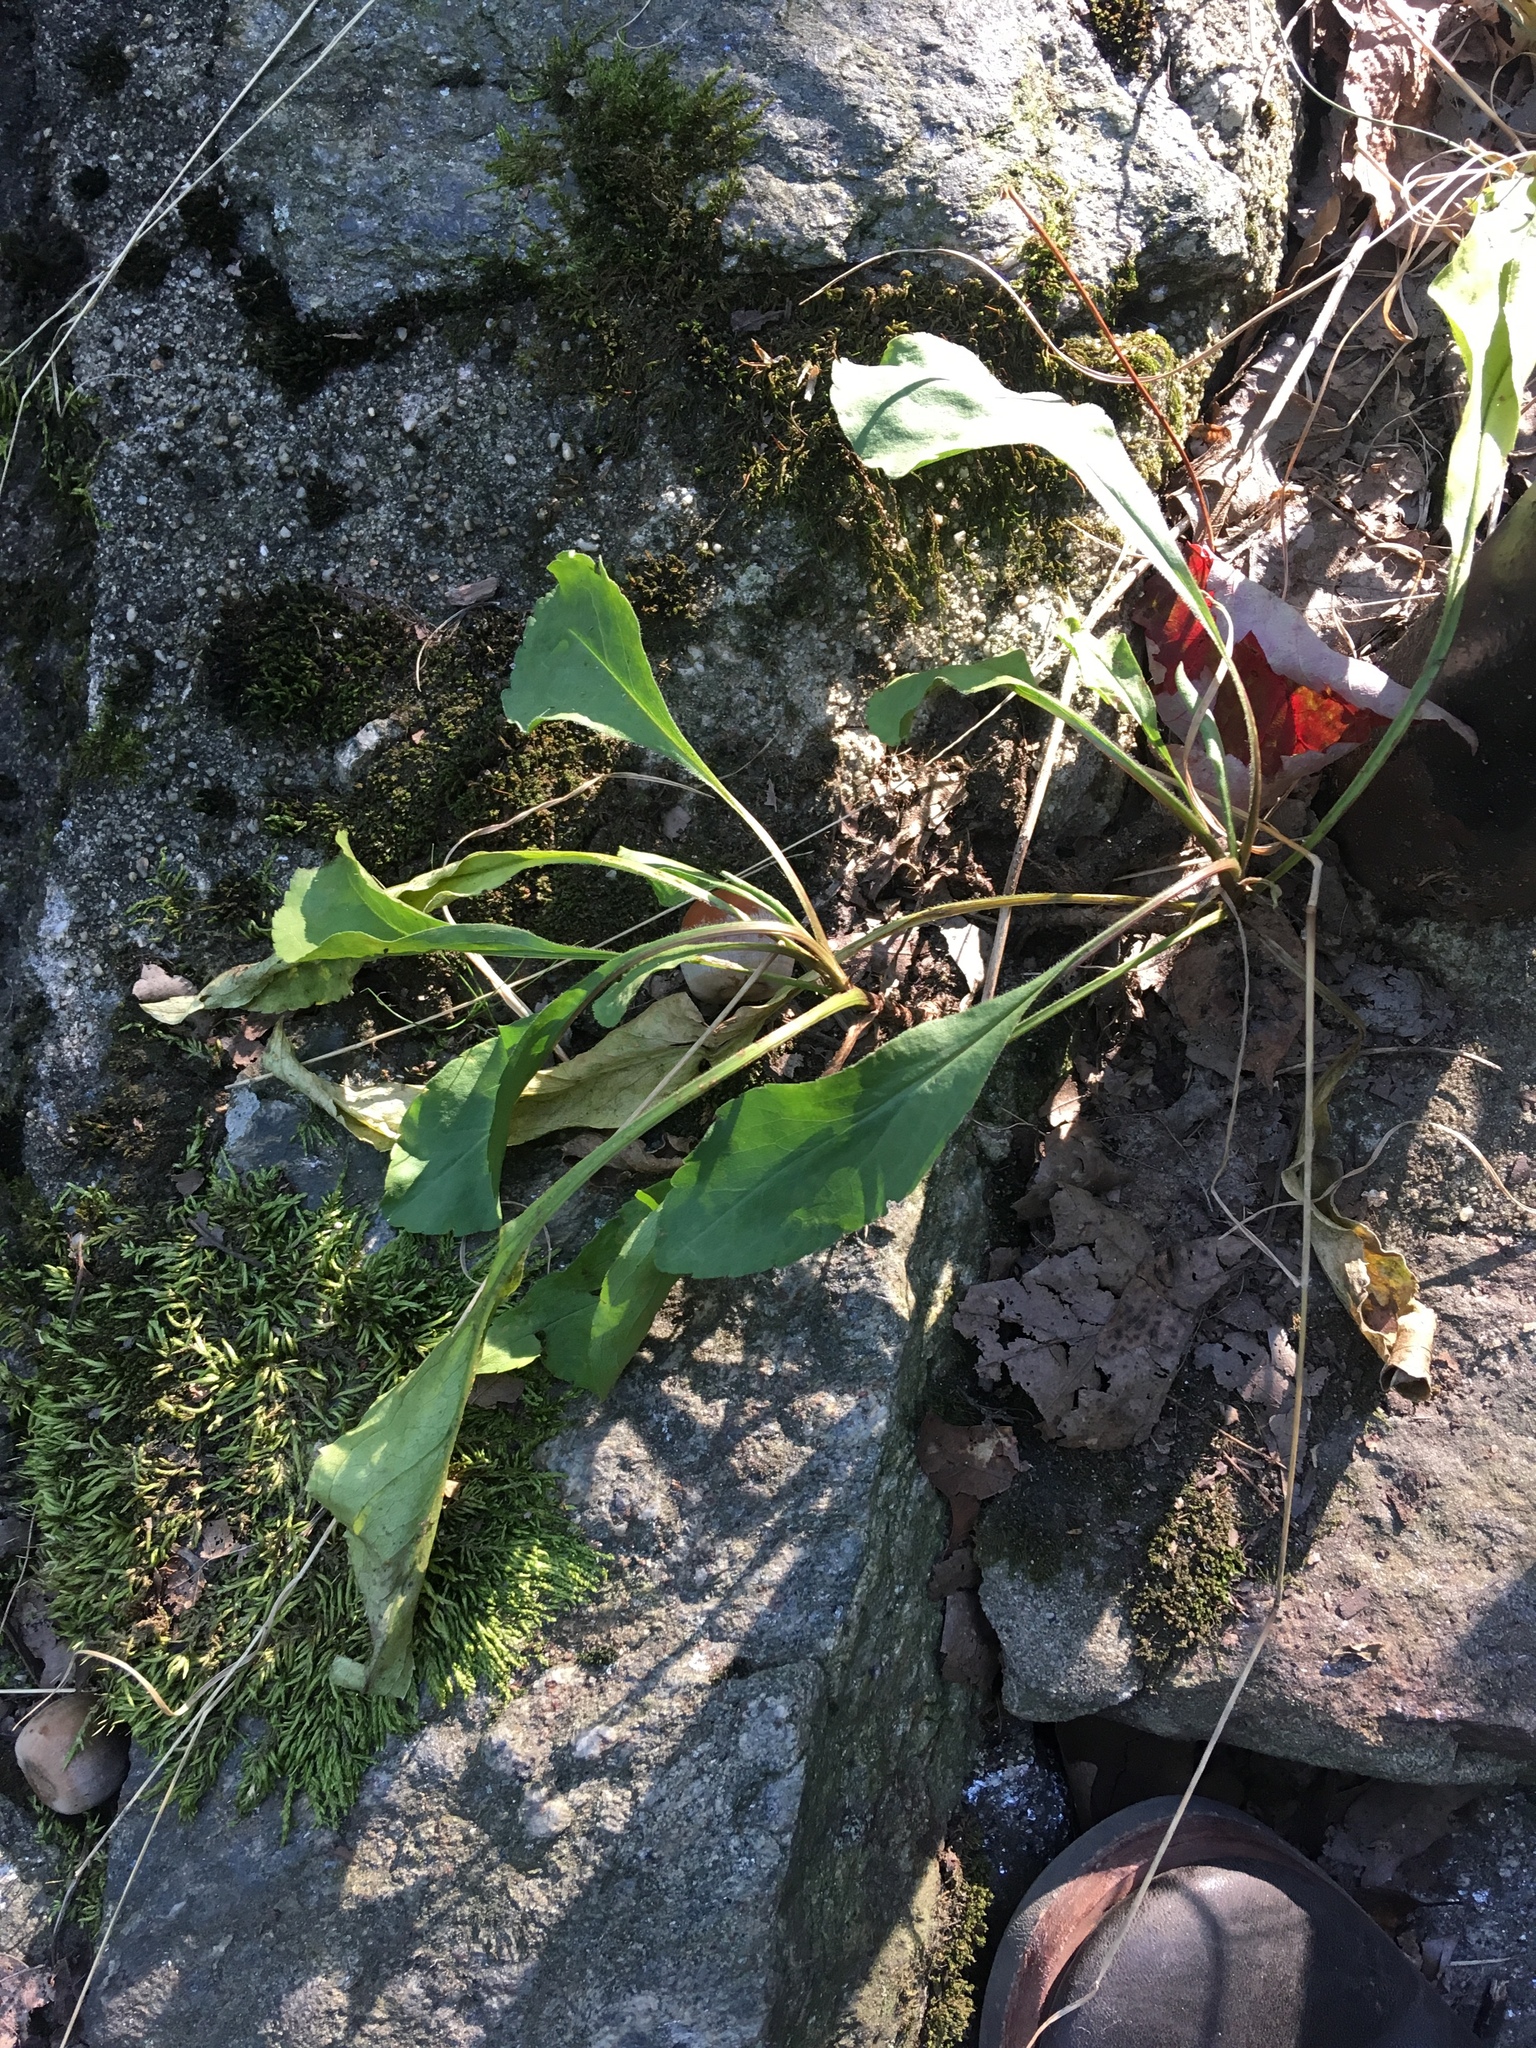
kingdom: Plantae
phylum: Tracheophyta
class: Magnoliopsida
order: Asterales
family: Asteraceae
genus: Solidago
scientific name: Solidago arguta
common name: Atlantic goldenrod
